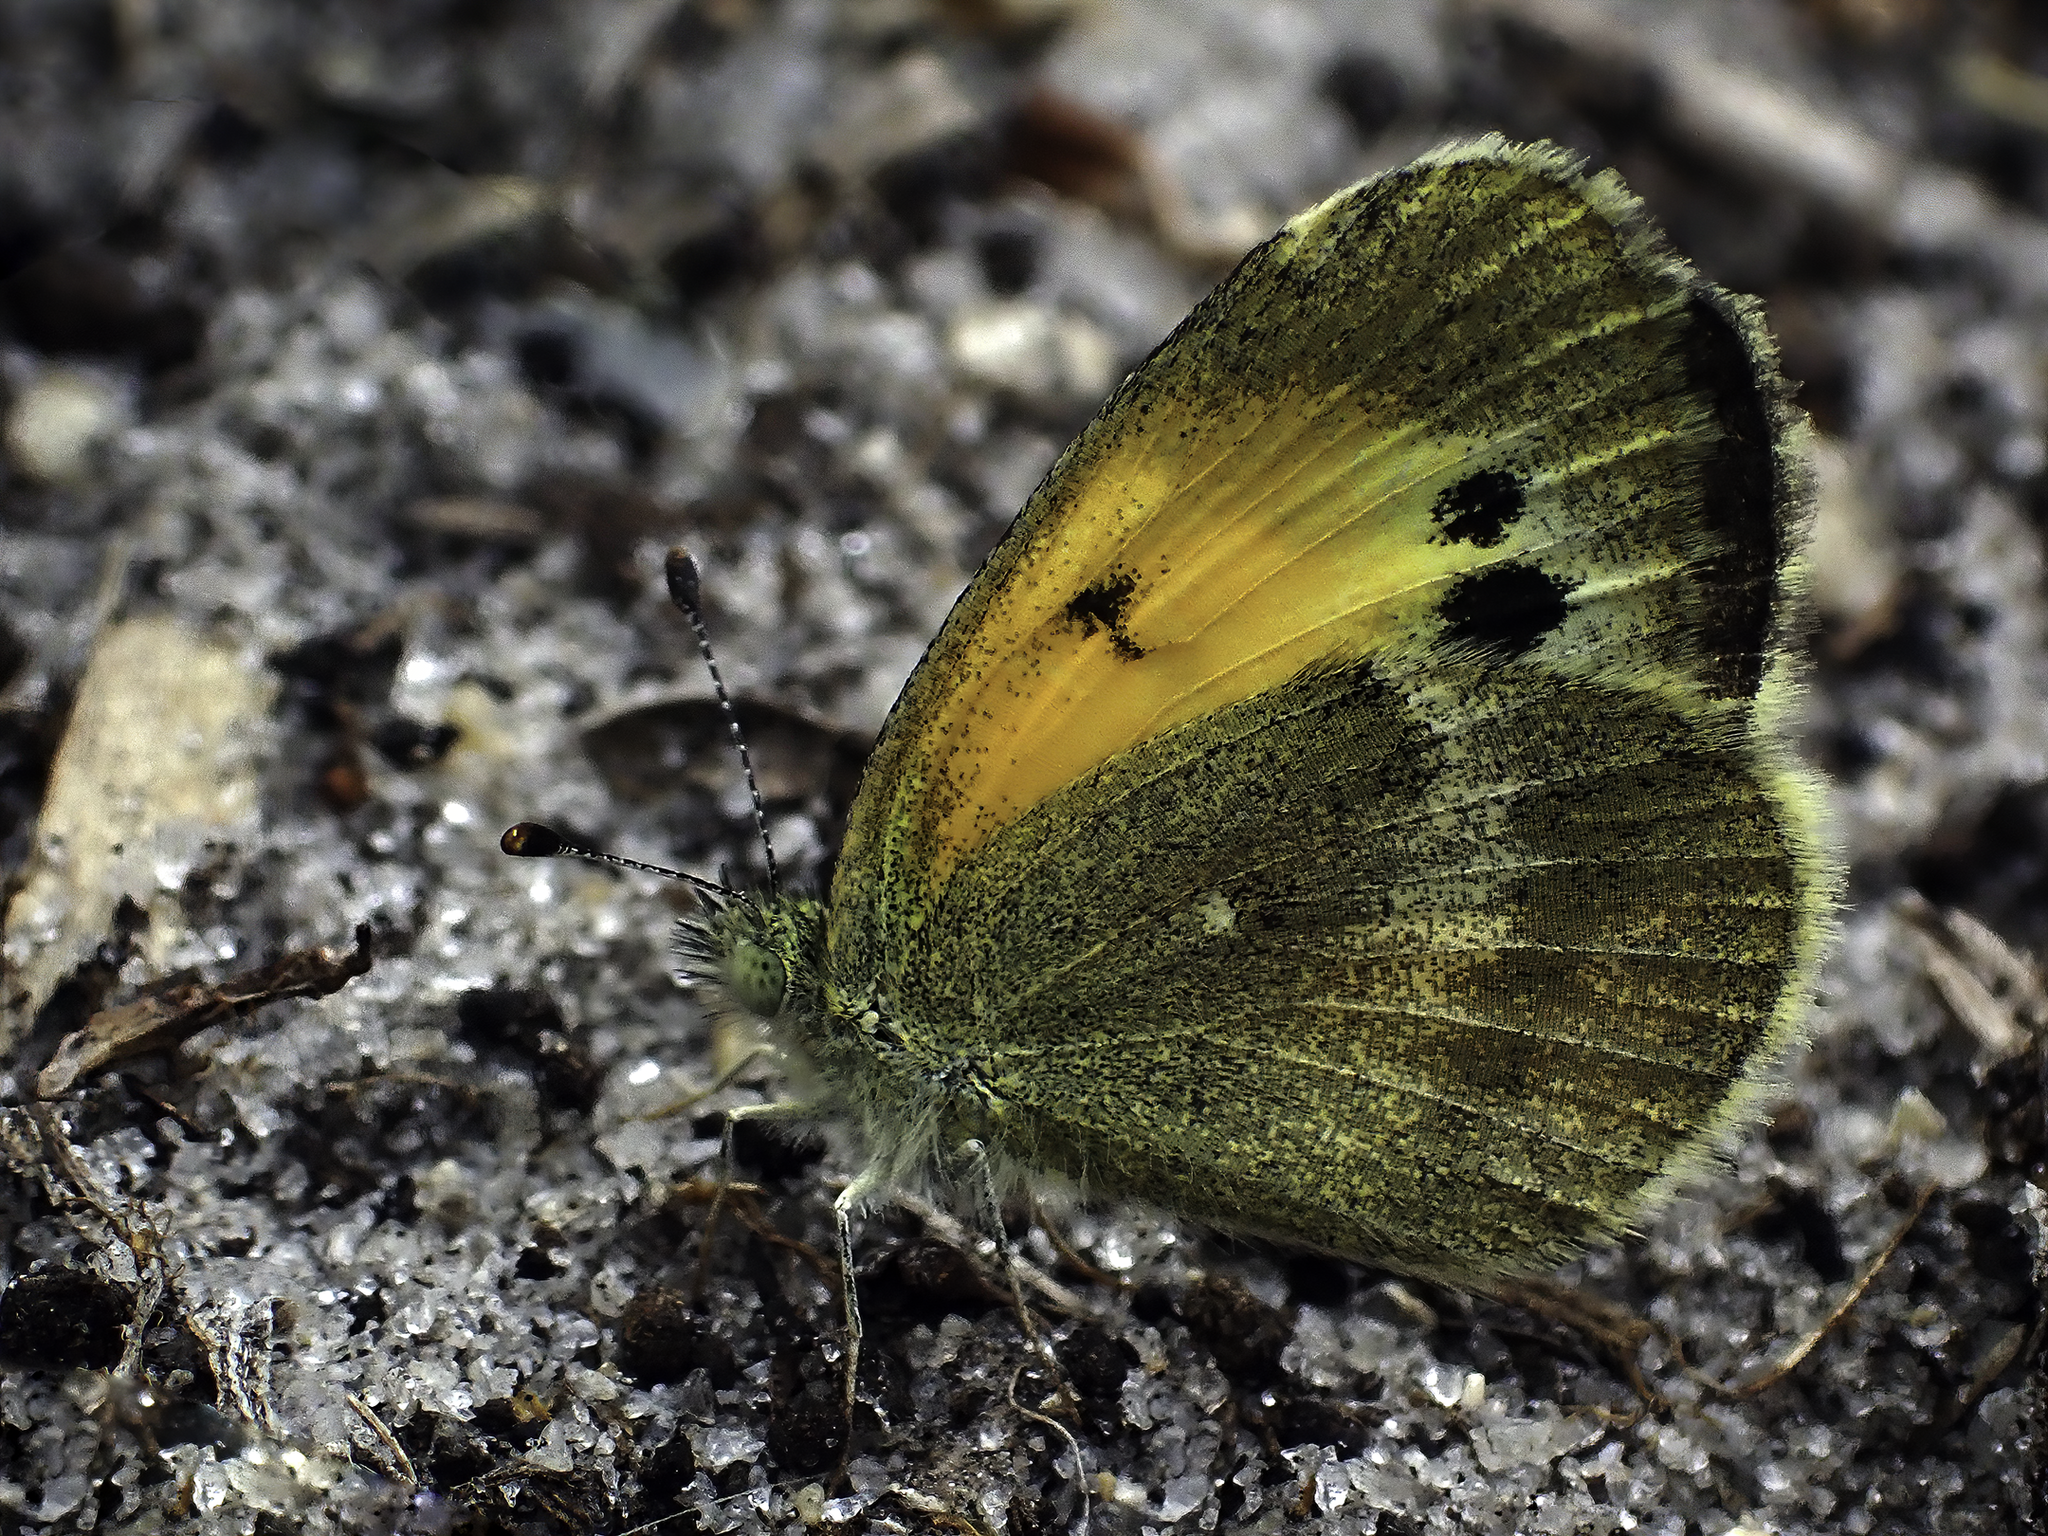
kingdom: Animalia
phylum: Arthropoda
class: Insecta
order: Lepidoptera
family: Pieridae
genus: Nathalis
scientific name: Nathalis iole
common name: Dainty sulphur
